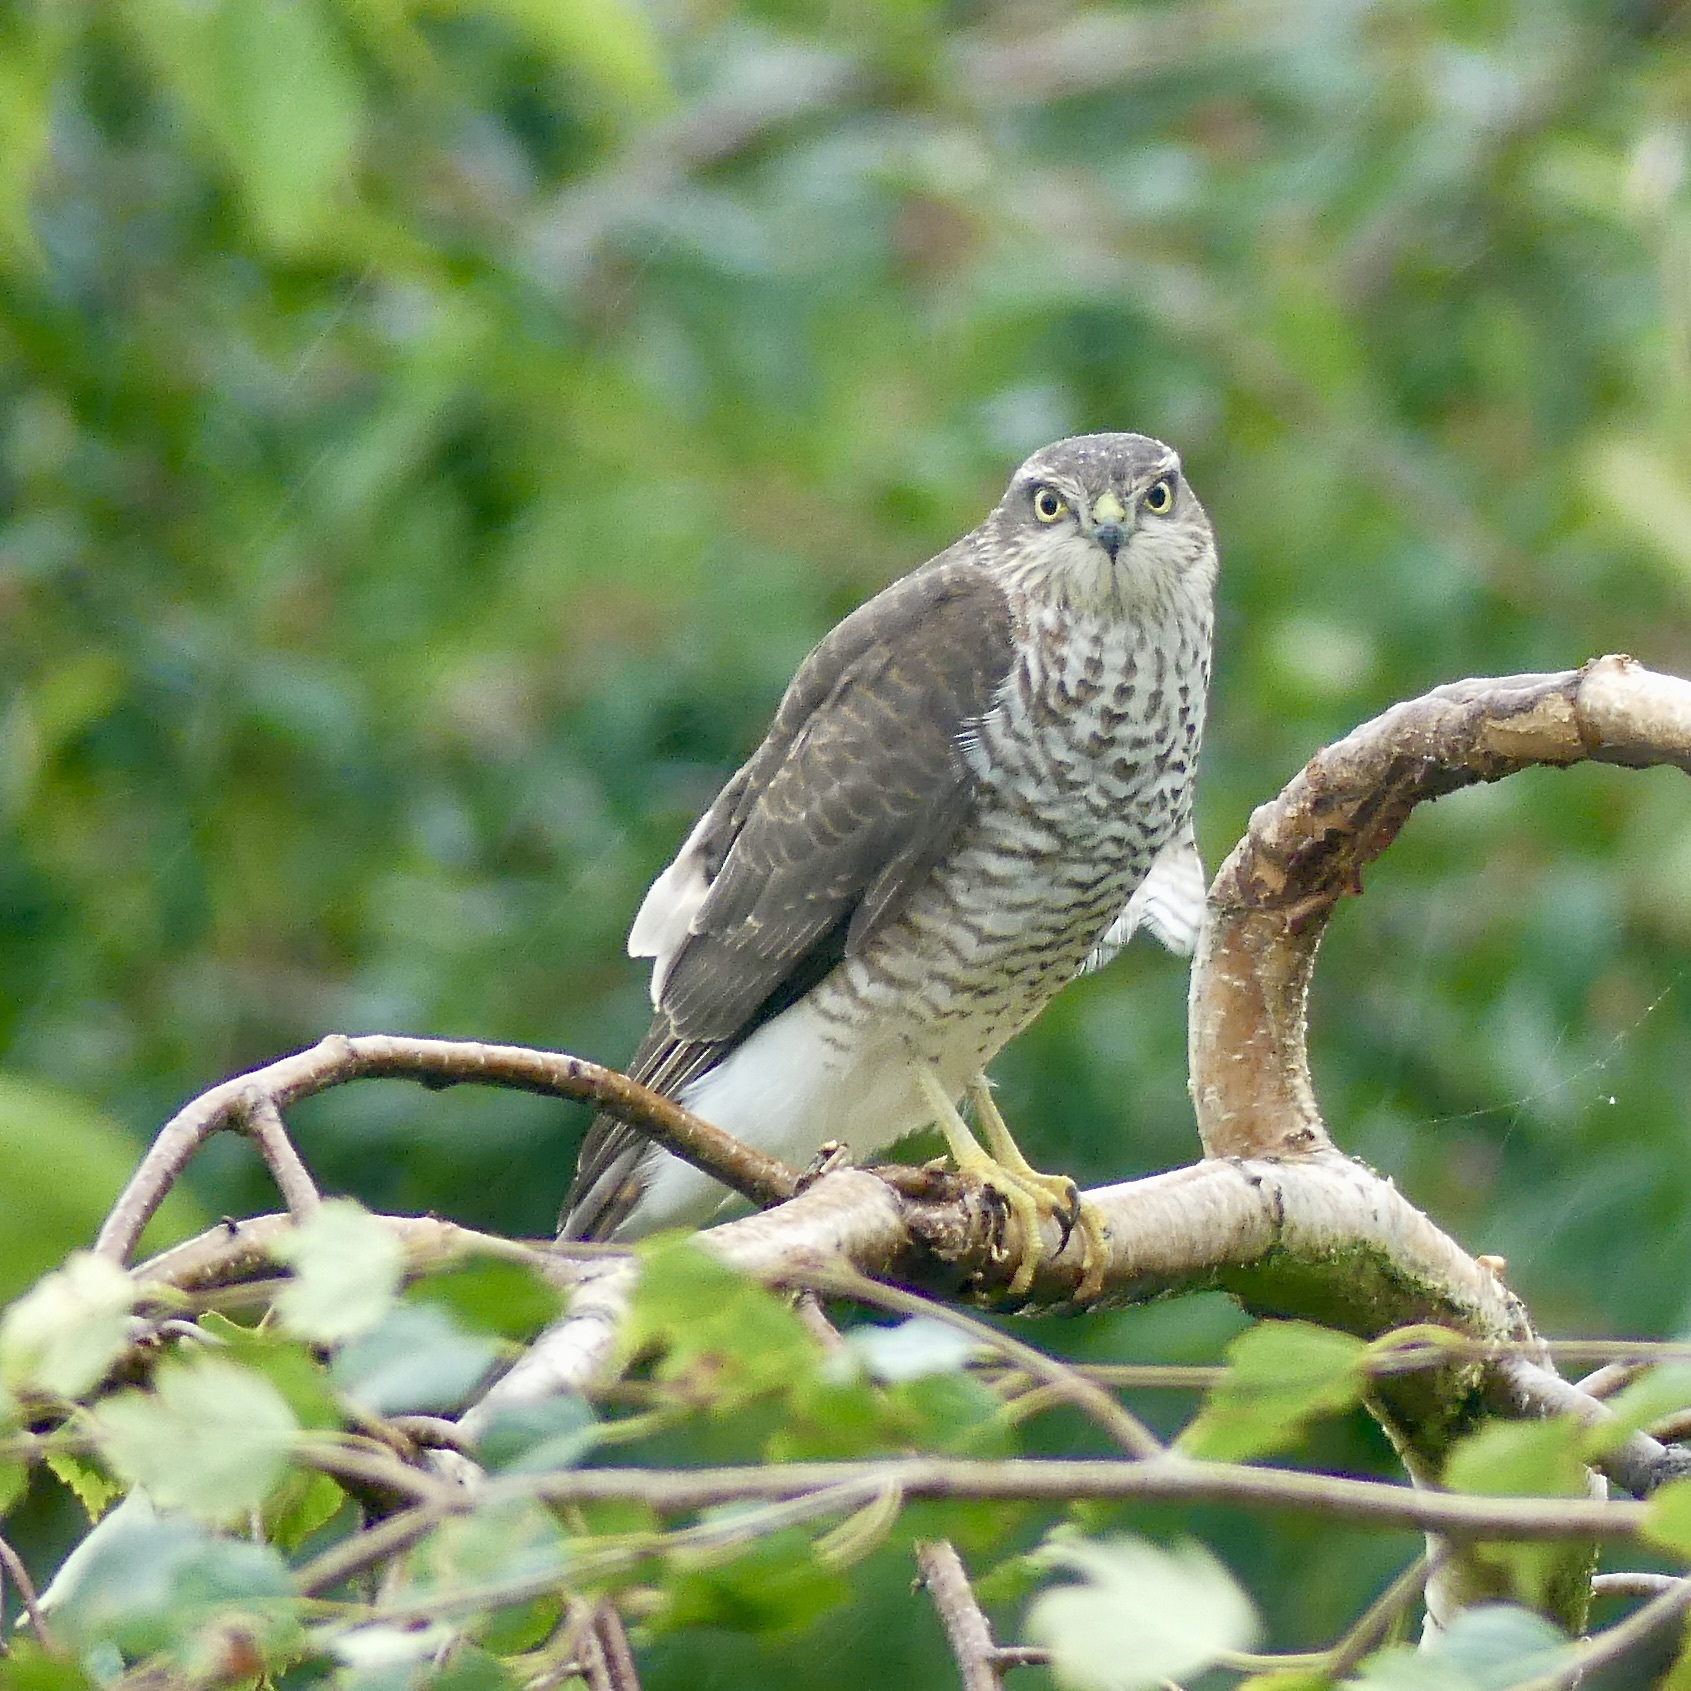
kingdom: Animalia
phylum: Chordata
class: Aves
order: Accipitriformes
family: Accipitridae
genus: Accipiter
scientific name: Accipiter nisus
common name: Eurasian sparrowhawk
